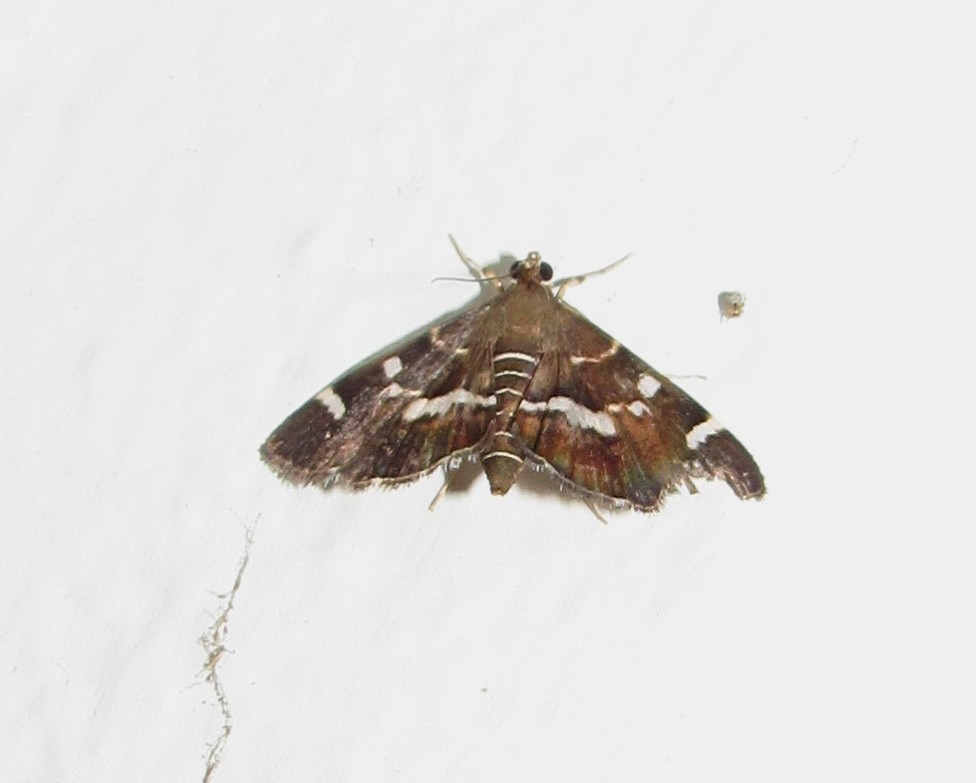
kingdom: Animalia
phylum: Arthropoda
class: Insecta
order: Lepidoptera
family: Crambidae
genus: Hymenia
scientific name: Hymenia perspectalis
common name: Spotted beet webworm
